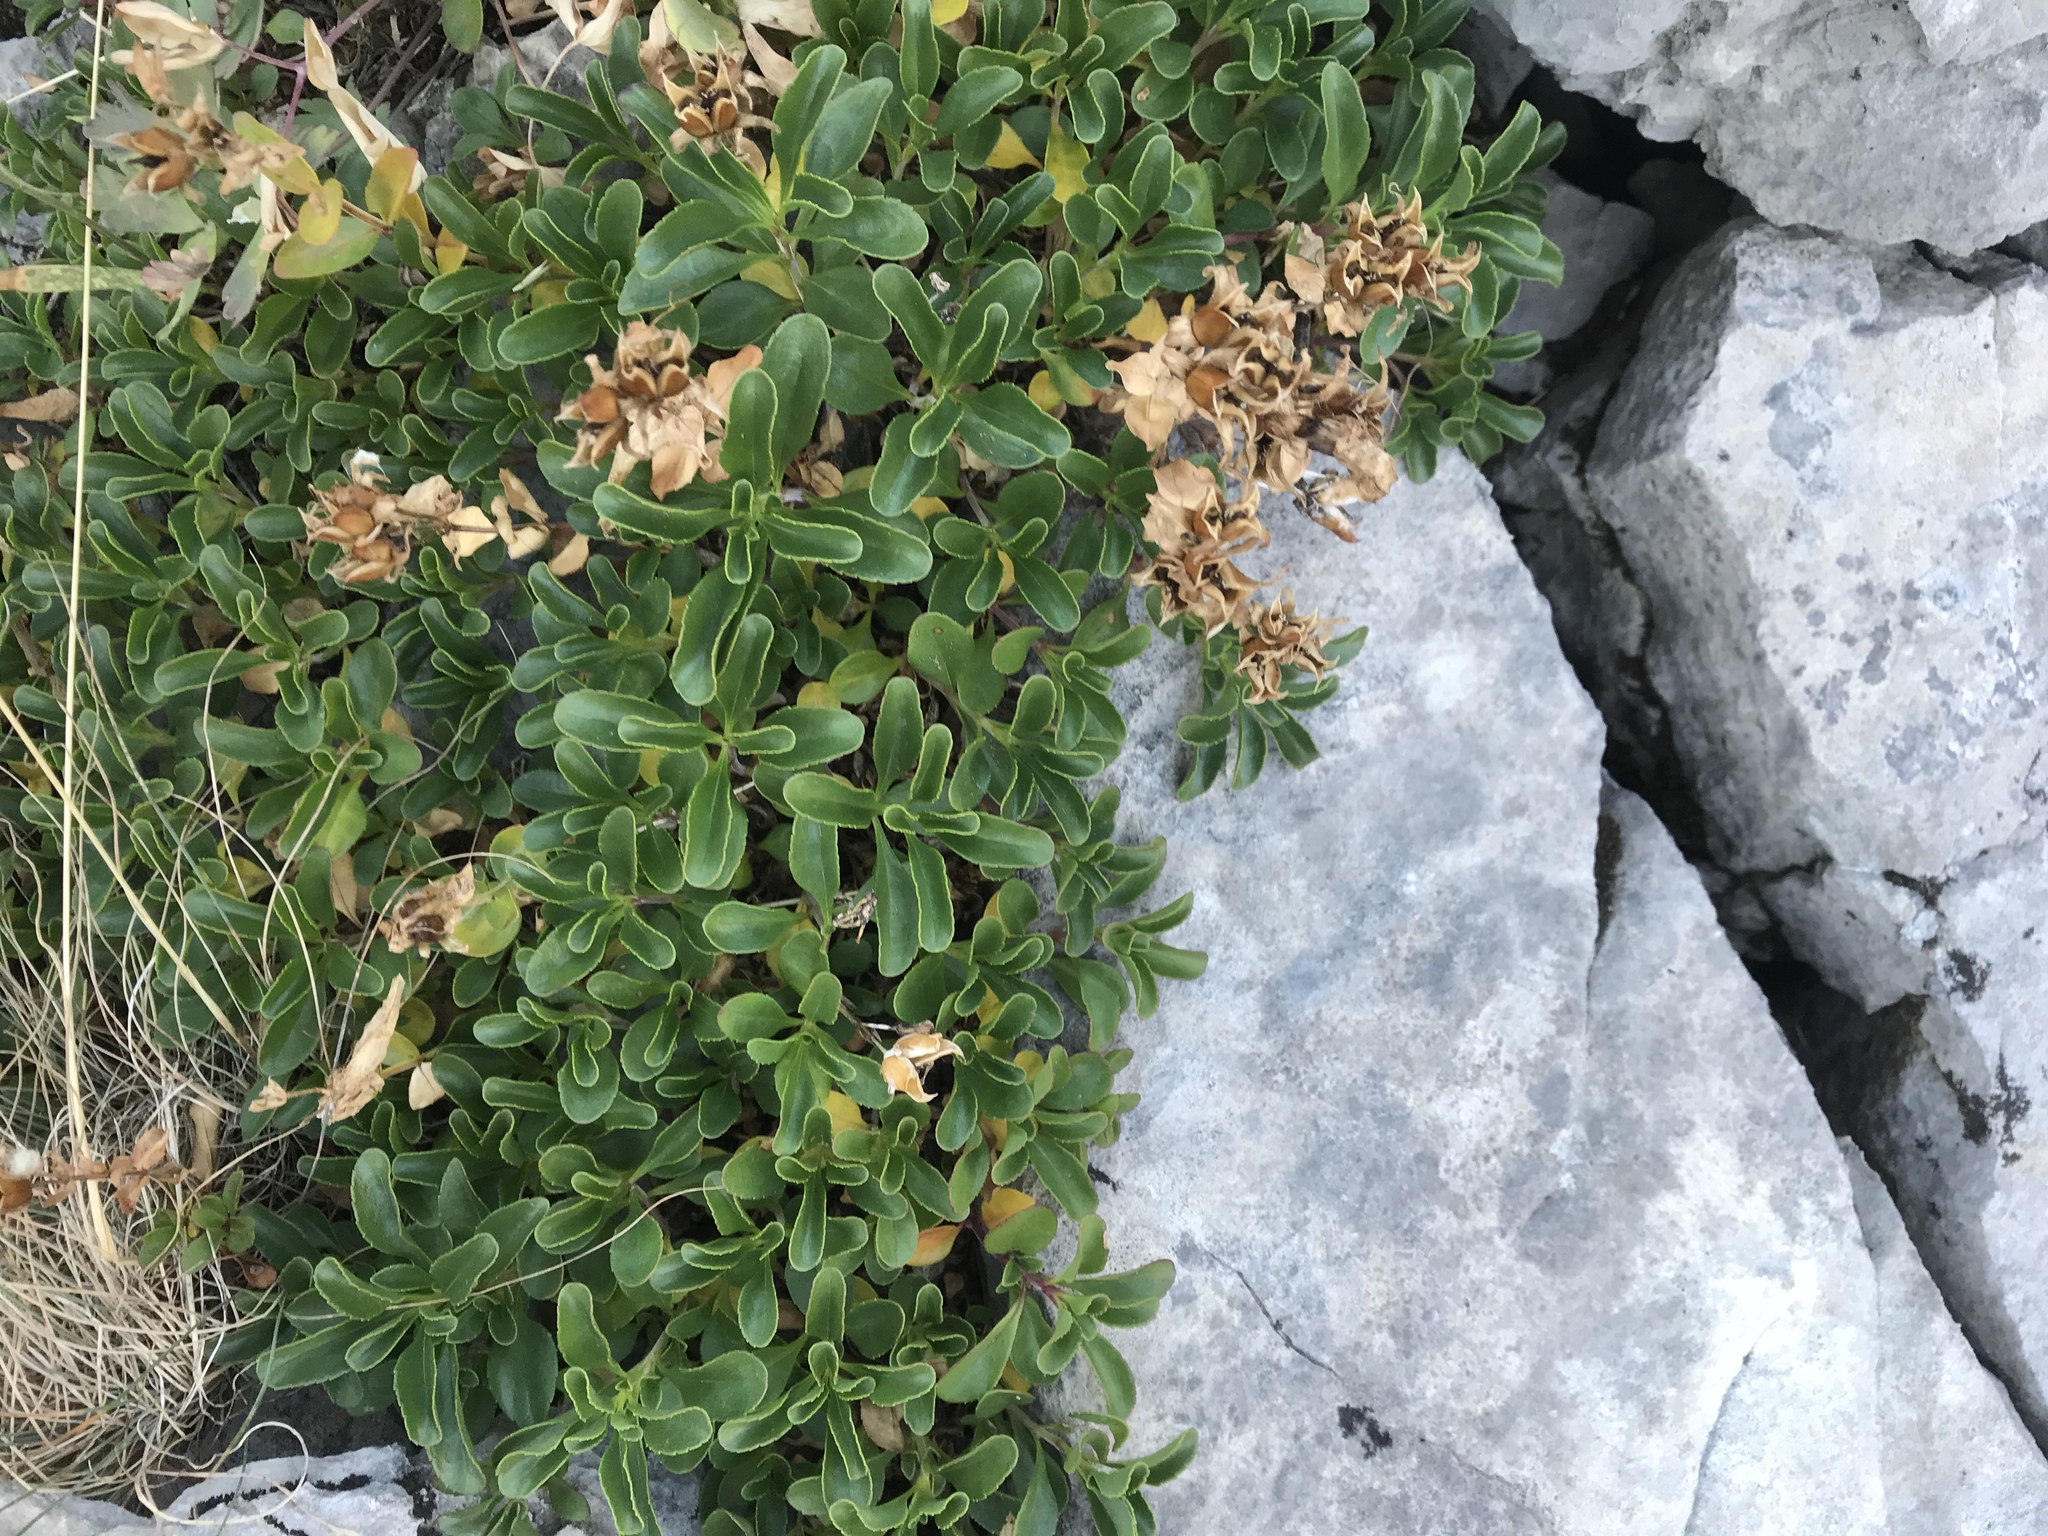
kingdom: Plantae
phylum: Tracheophyta
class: Magnoliopsida
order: Lamiales
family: Plantaginaceae
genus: Penstemon
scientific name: Penstemon ellipticus
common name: Alpine beardtongue
